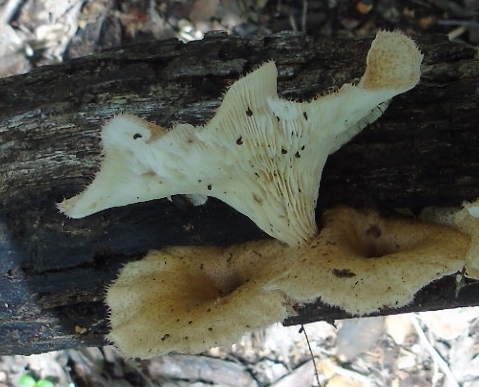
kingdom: Fungi
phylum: Basidiomycota
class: Agaricomycetes
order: Polyporales
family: Polyporaceae
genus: Lentinus
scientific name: Lentinus
